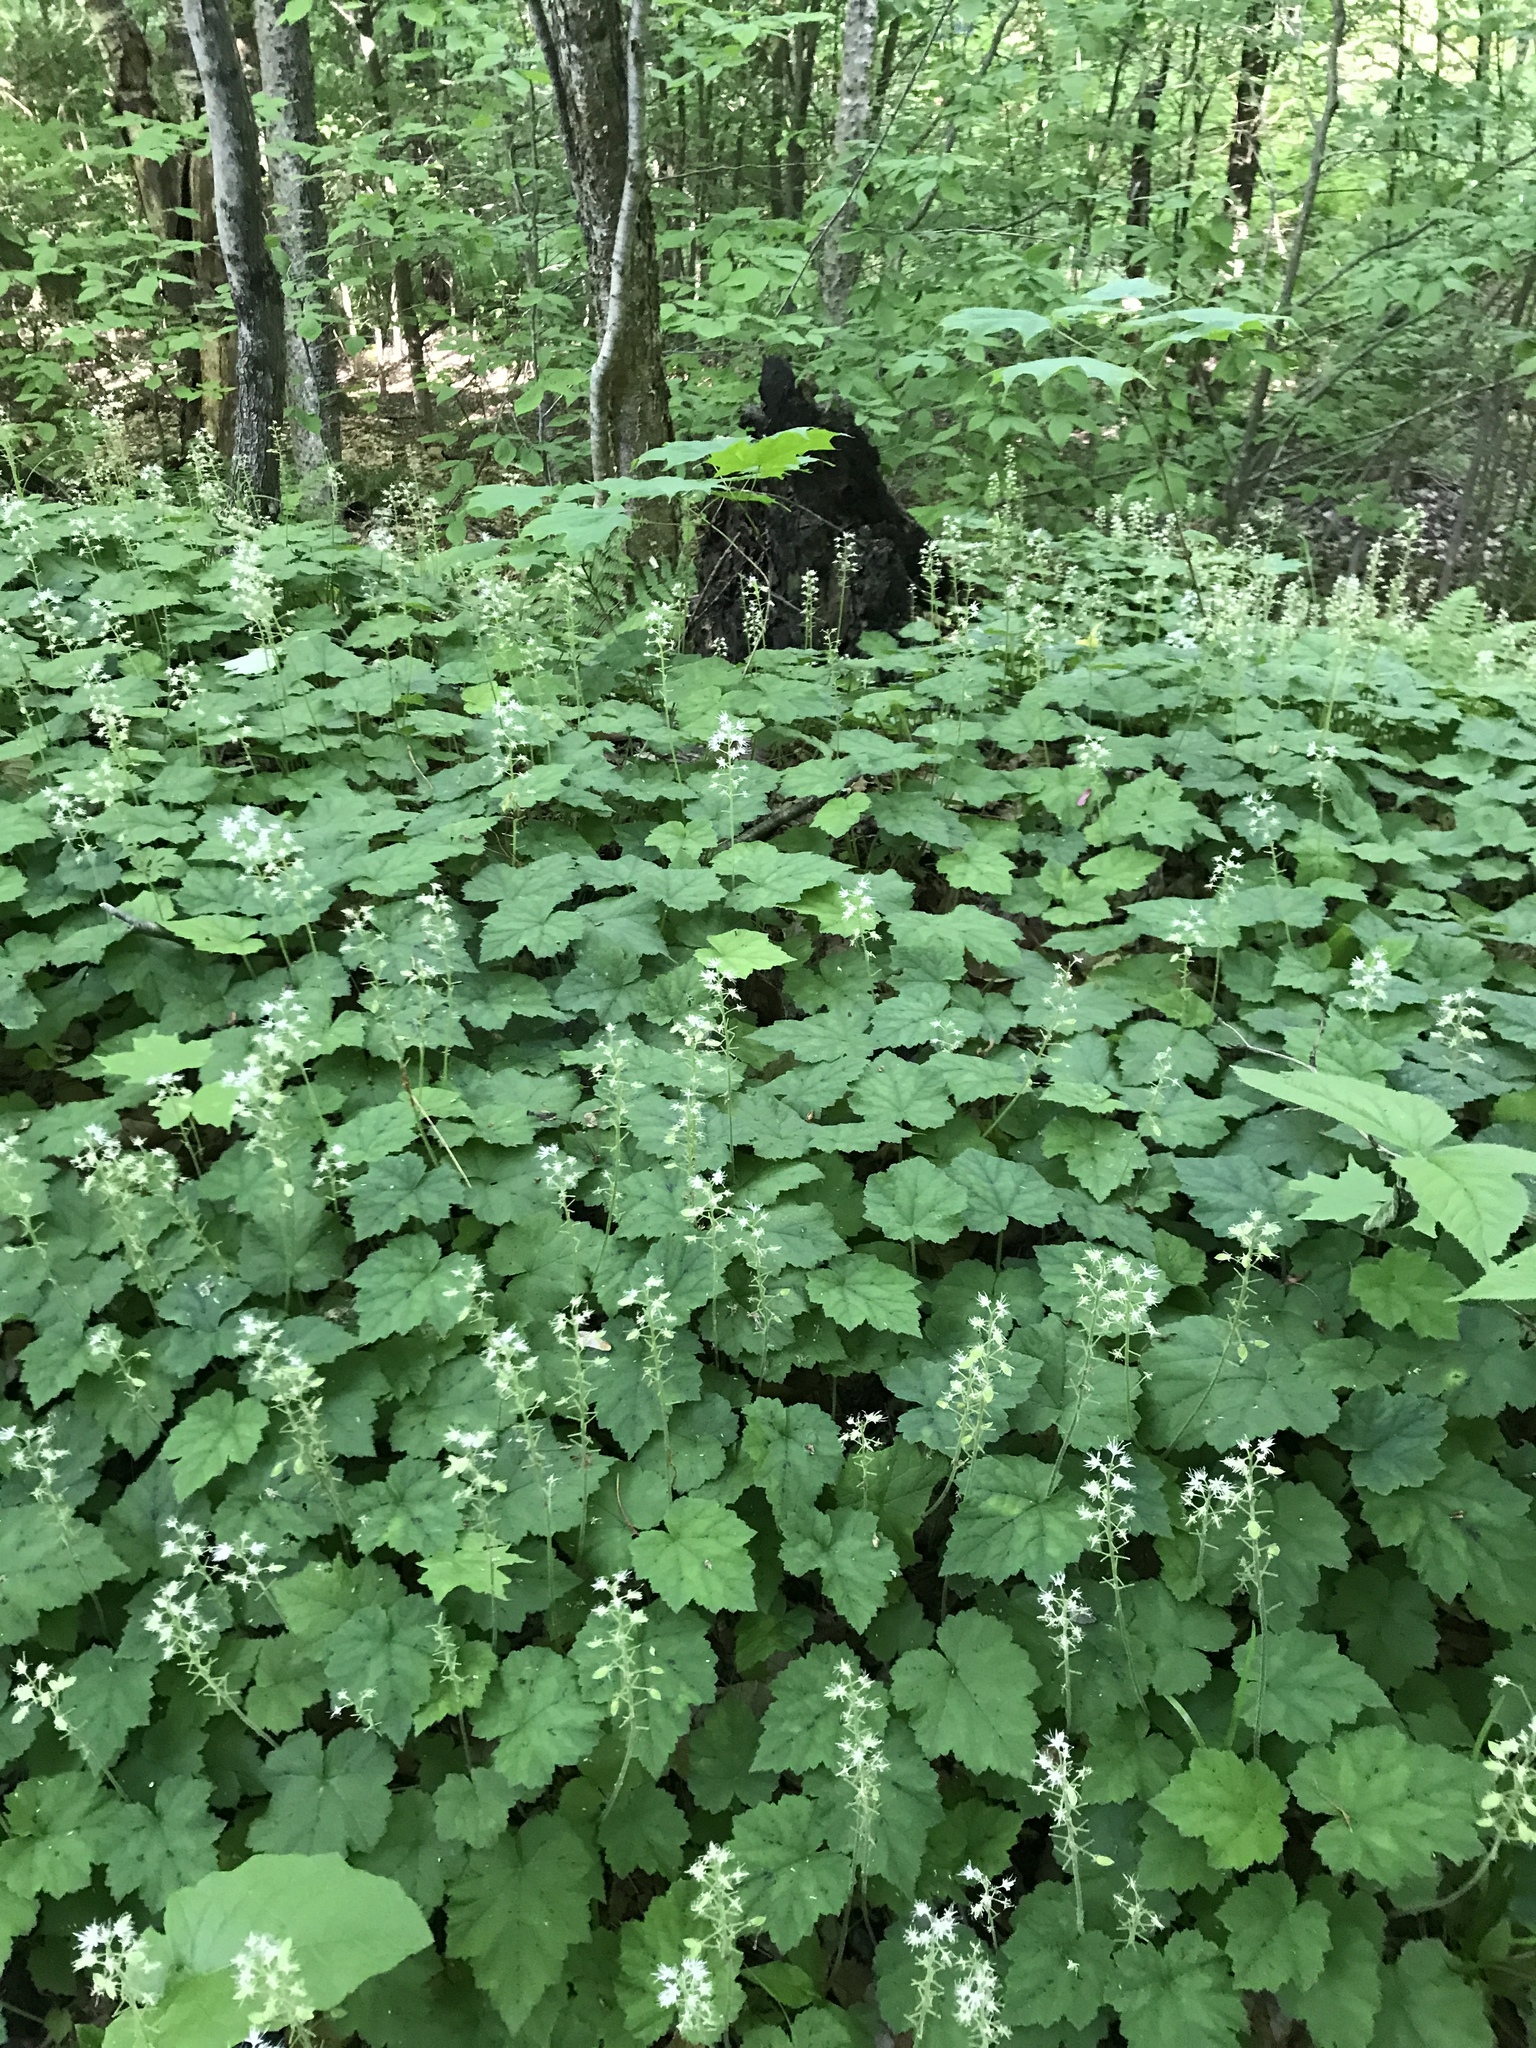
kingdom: Plantae
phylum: Tracheophyta
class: Magnoliopsida
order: Saxifragales
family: Saxifragaceae
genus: Tiarella
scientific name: Tiarella stolonifera
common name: Stoloniferous foamflower
